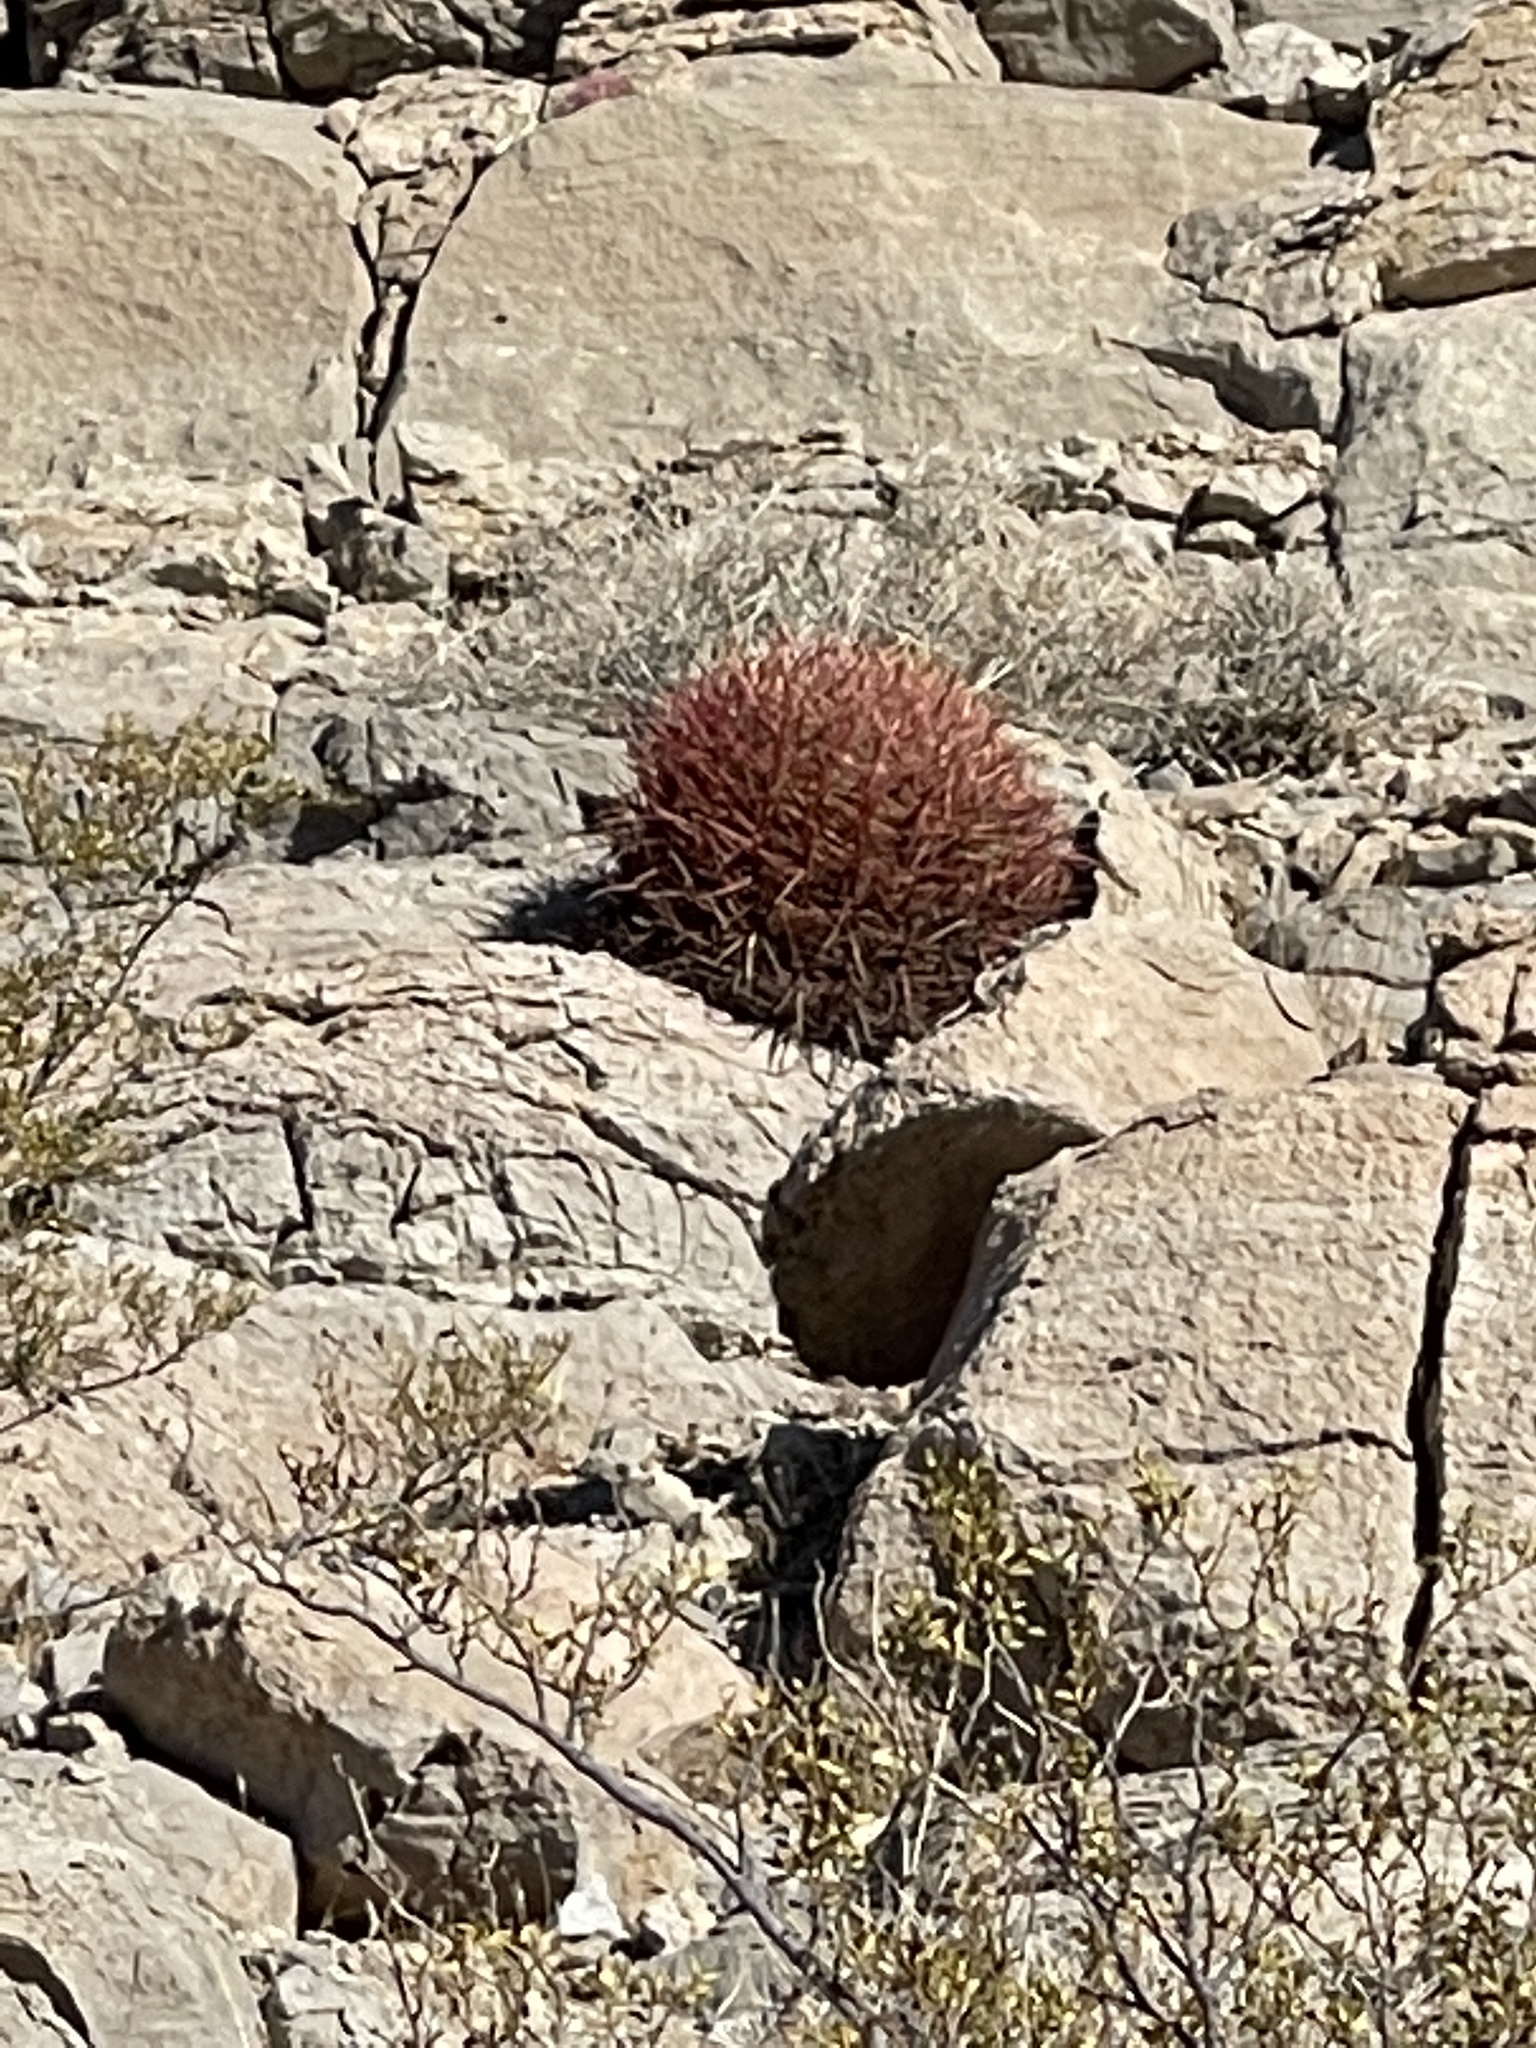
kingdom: Plantae
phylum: Tracheophyta
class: Magnoliopsida
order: Caryophyllales
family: Cactaceae
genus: Sclerocactus
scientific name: Sclerocactus johnsonii
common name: Eight-spine fishhook cactus
